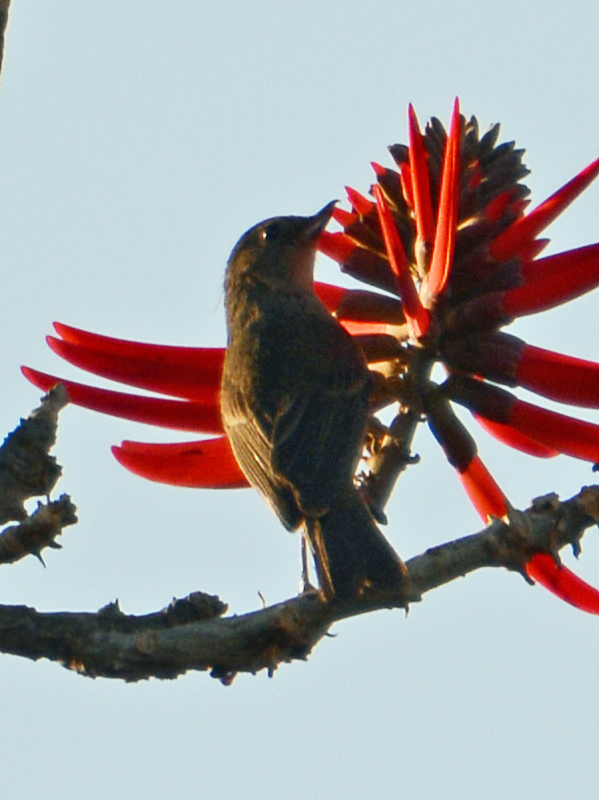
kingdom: Animalia
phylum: Chordata
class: Aves
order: Passeriformes
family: Thraupidae
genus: Diglossa
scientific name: Diglossa baritula
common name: Cinnamon-bellied flowerpiercer
